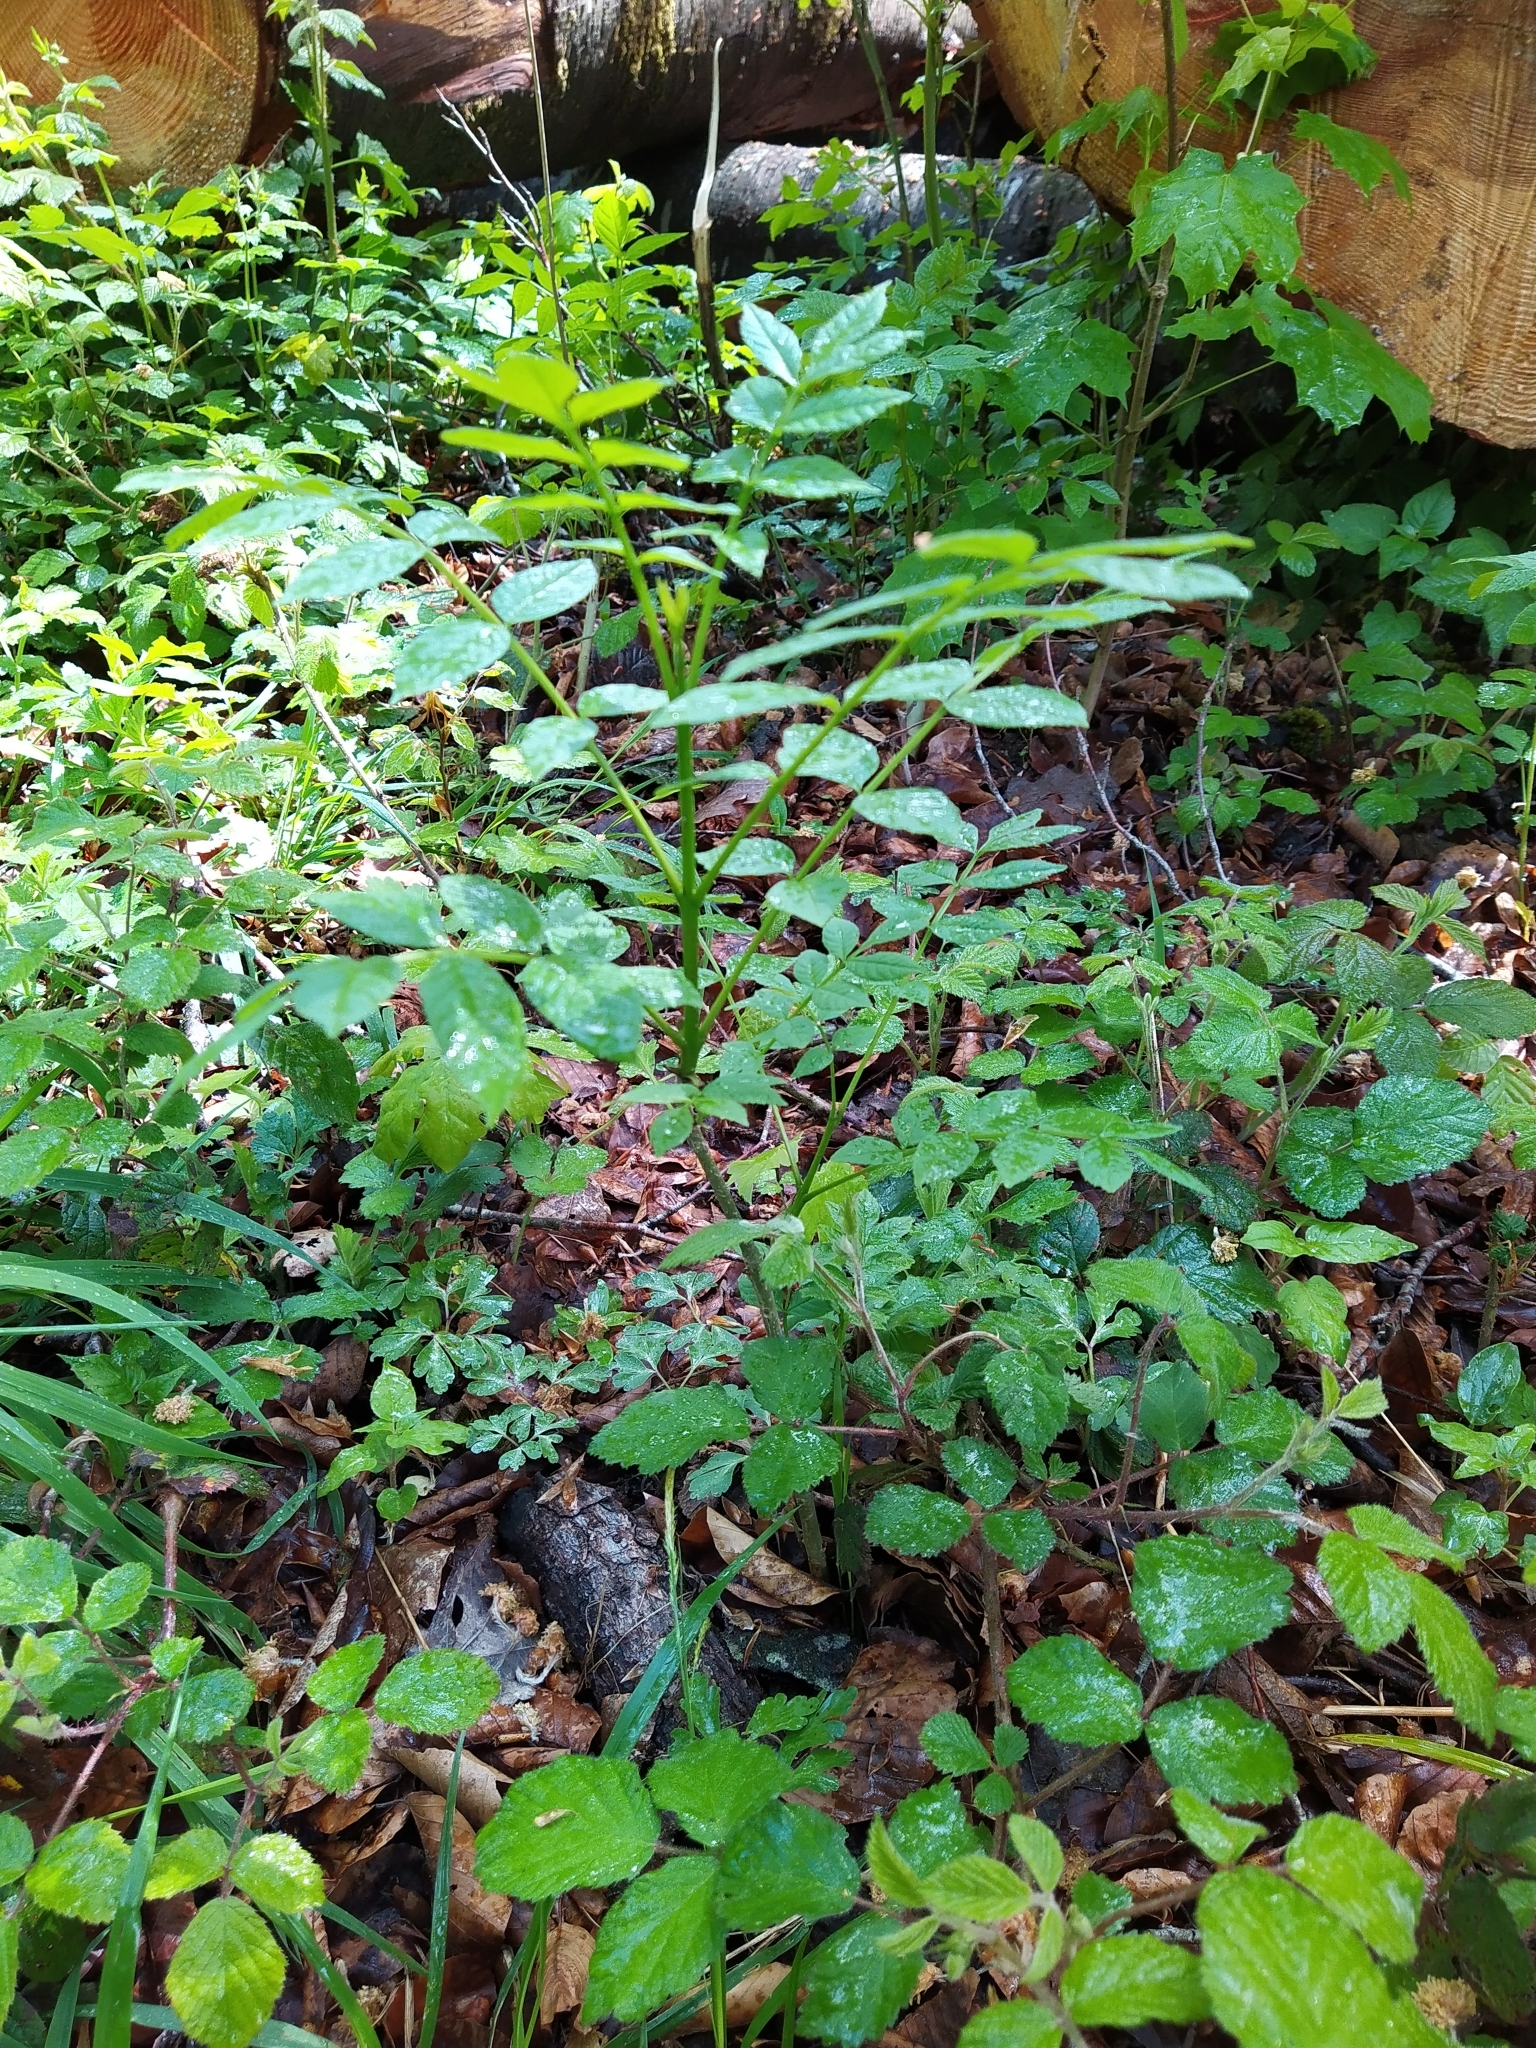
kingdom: Plantae
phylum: Tracheophyta
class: Magnoliopsida
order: Lamiales
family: Oleaceae
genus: Fraxinus
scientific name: Fraxinus excelsior
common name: European ash
